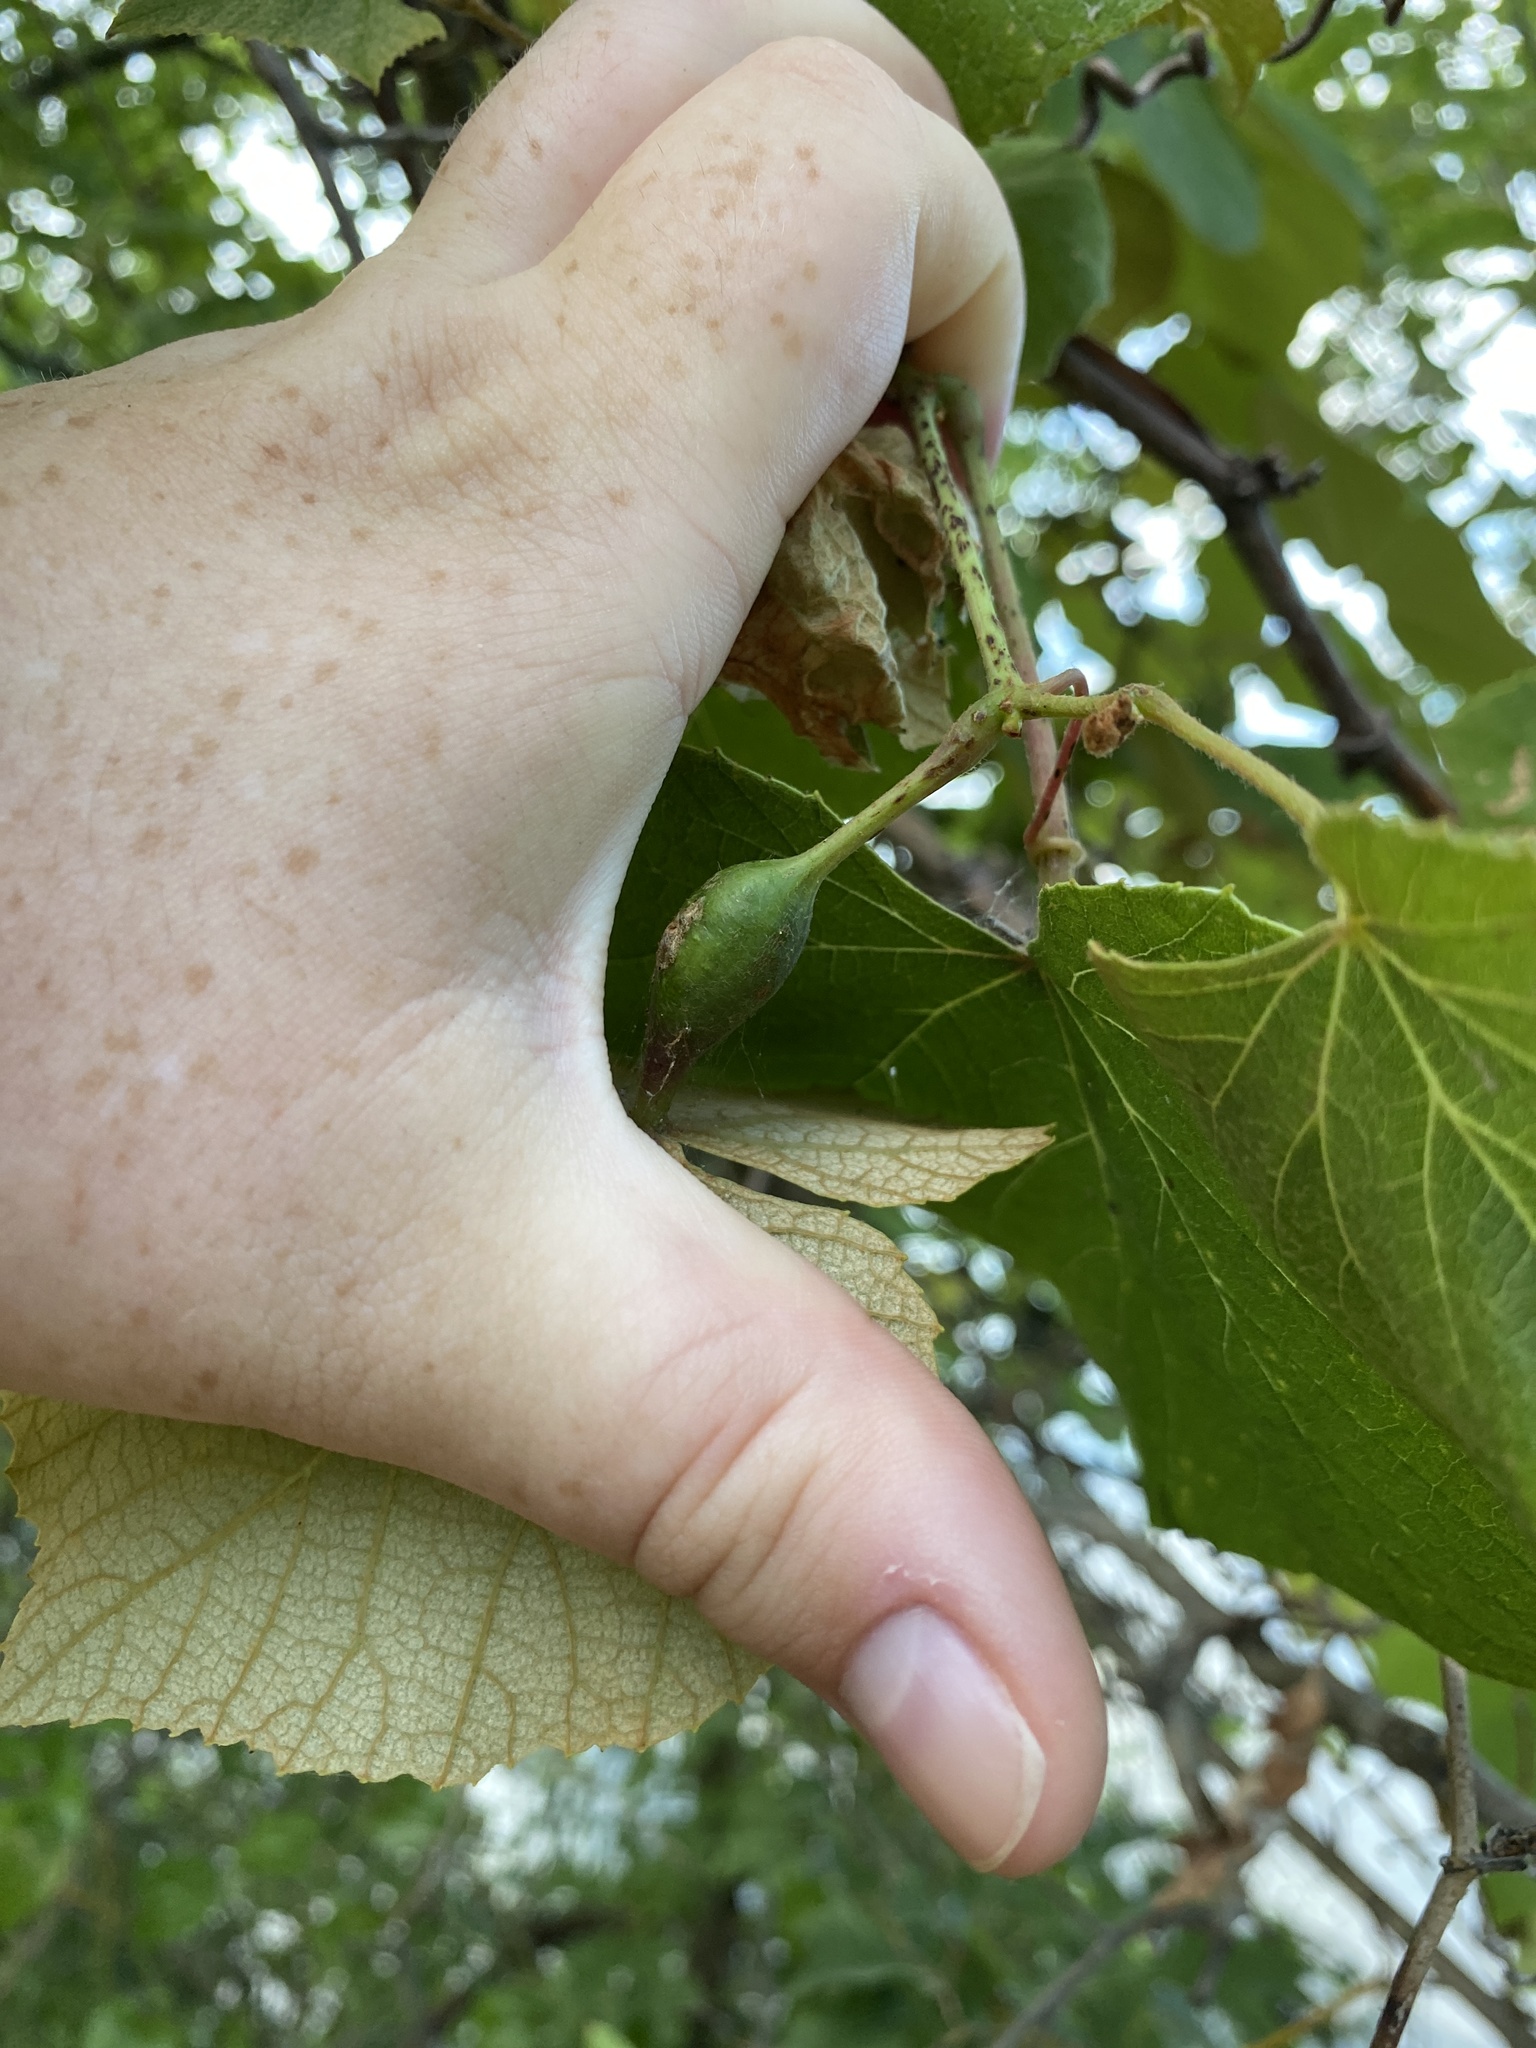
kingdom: Animalia
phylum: Arthropoda
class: Insecta
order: Diptera
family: Cecidomyiidae
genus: Neolasioptera
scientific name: Neolasioptera vitinea
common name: Grape leaf petiole gall
